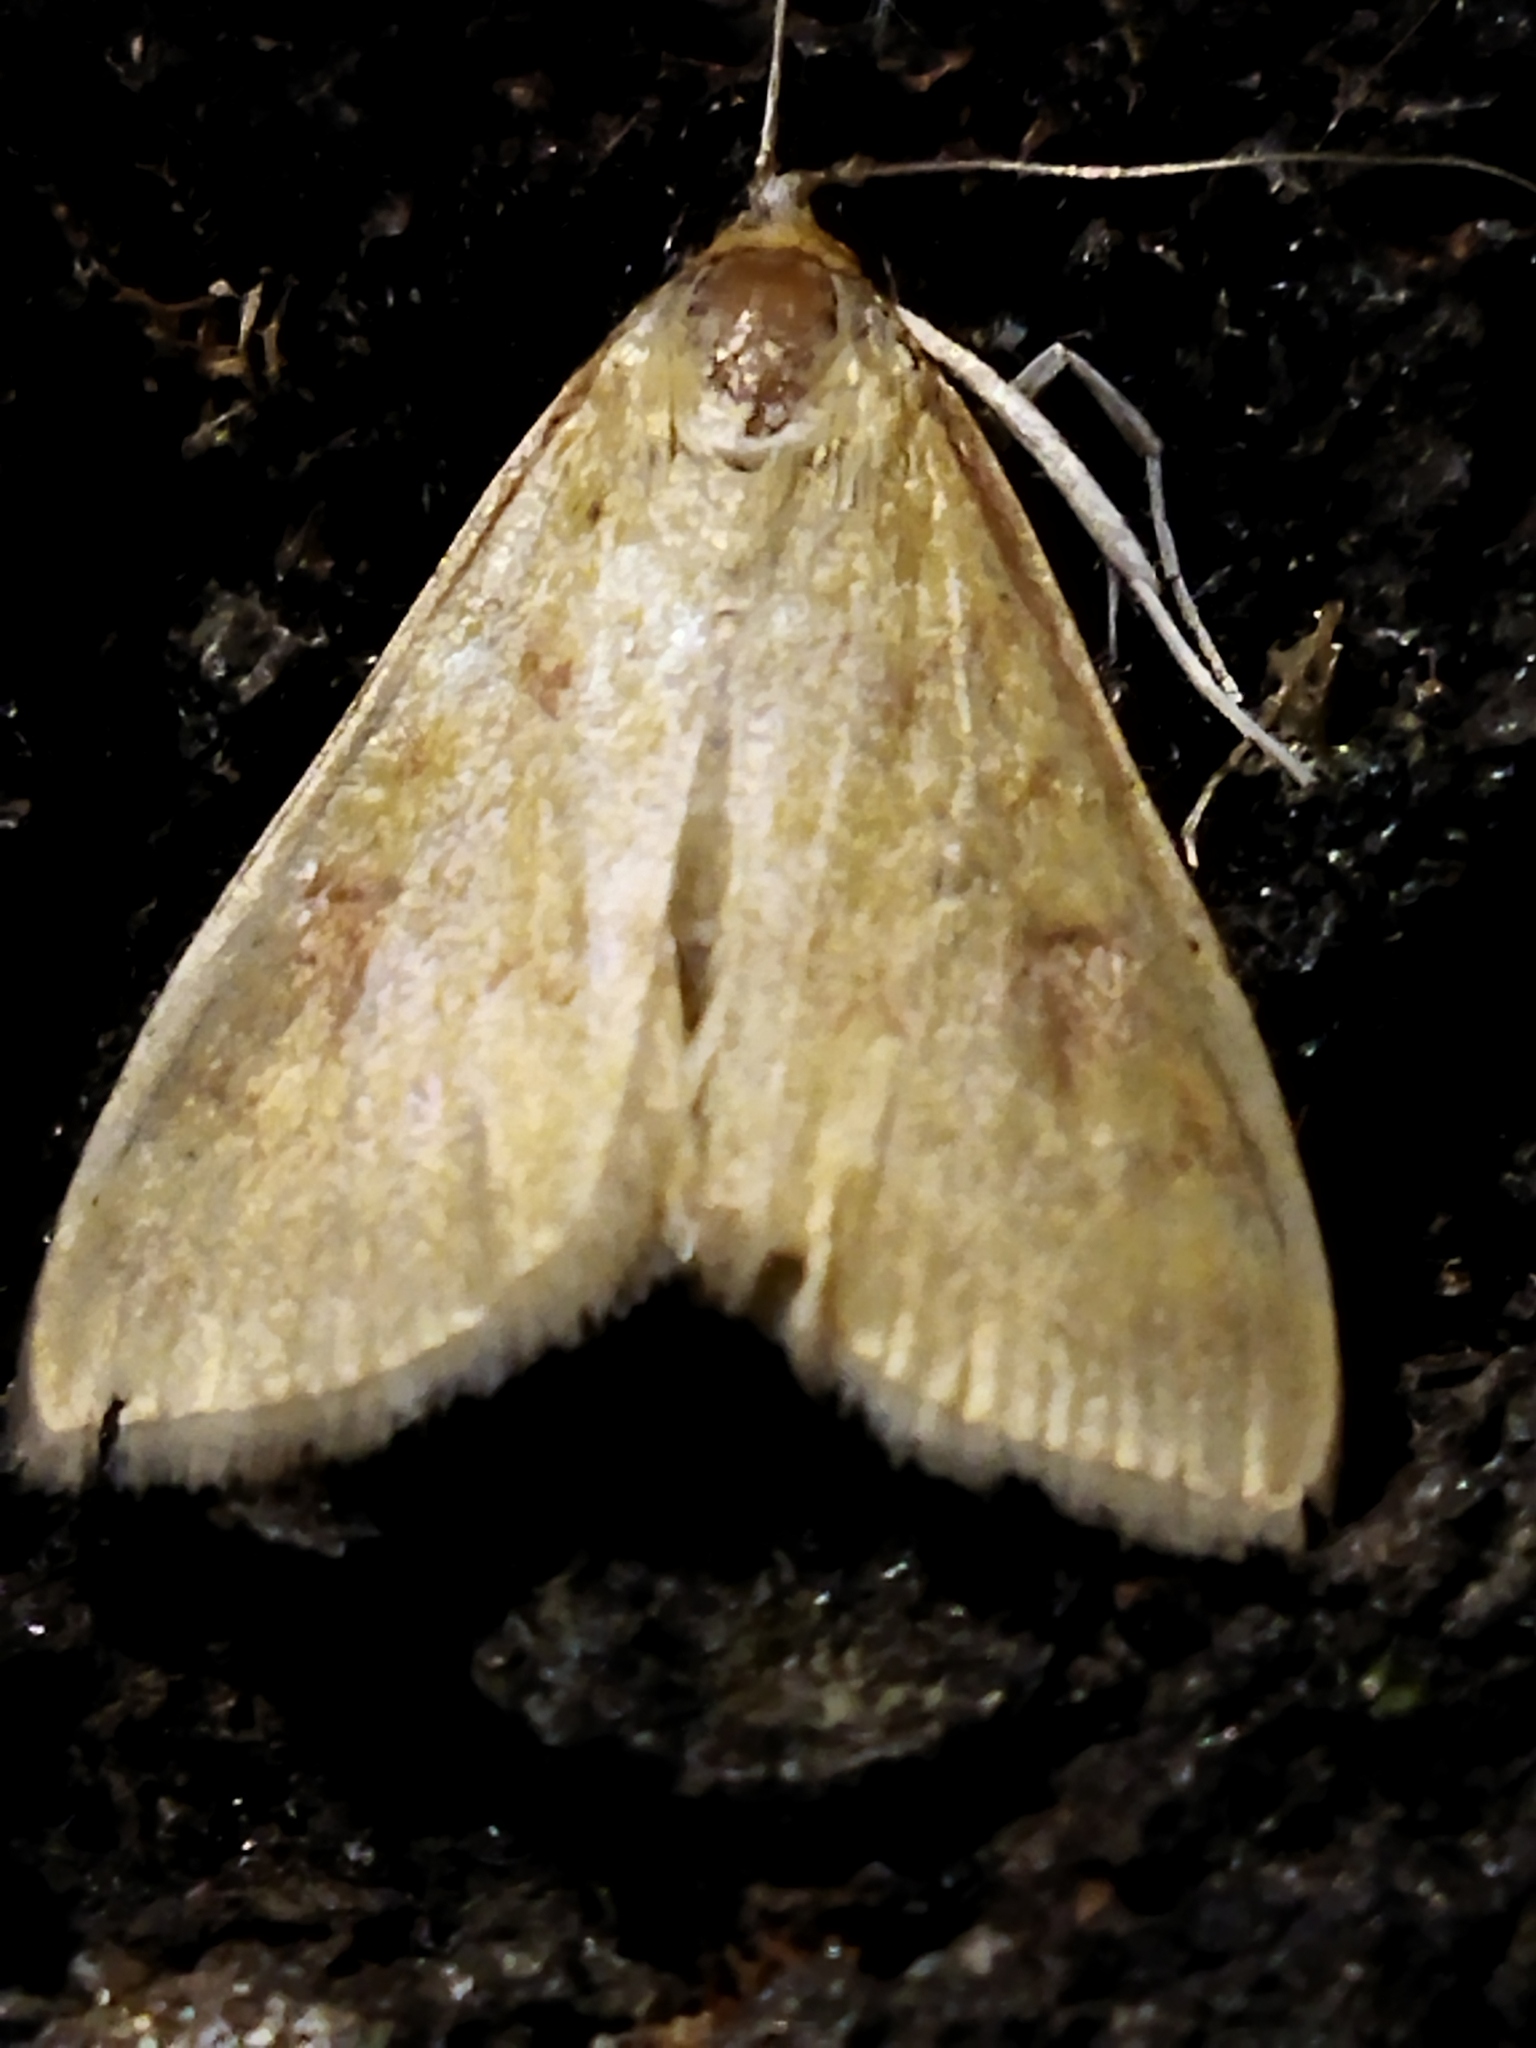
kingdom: Animalia
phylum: Arthropoda
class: Insecta
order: Lepidoptera
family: Crambidae
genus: Ostrinia
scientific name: Ostrinia nubilalis
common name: European corn borer
